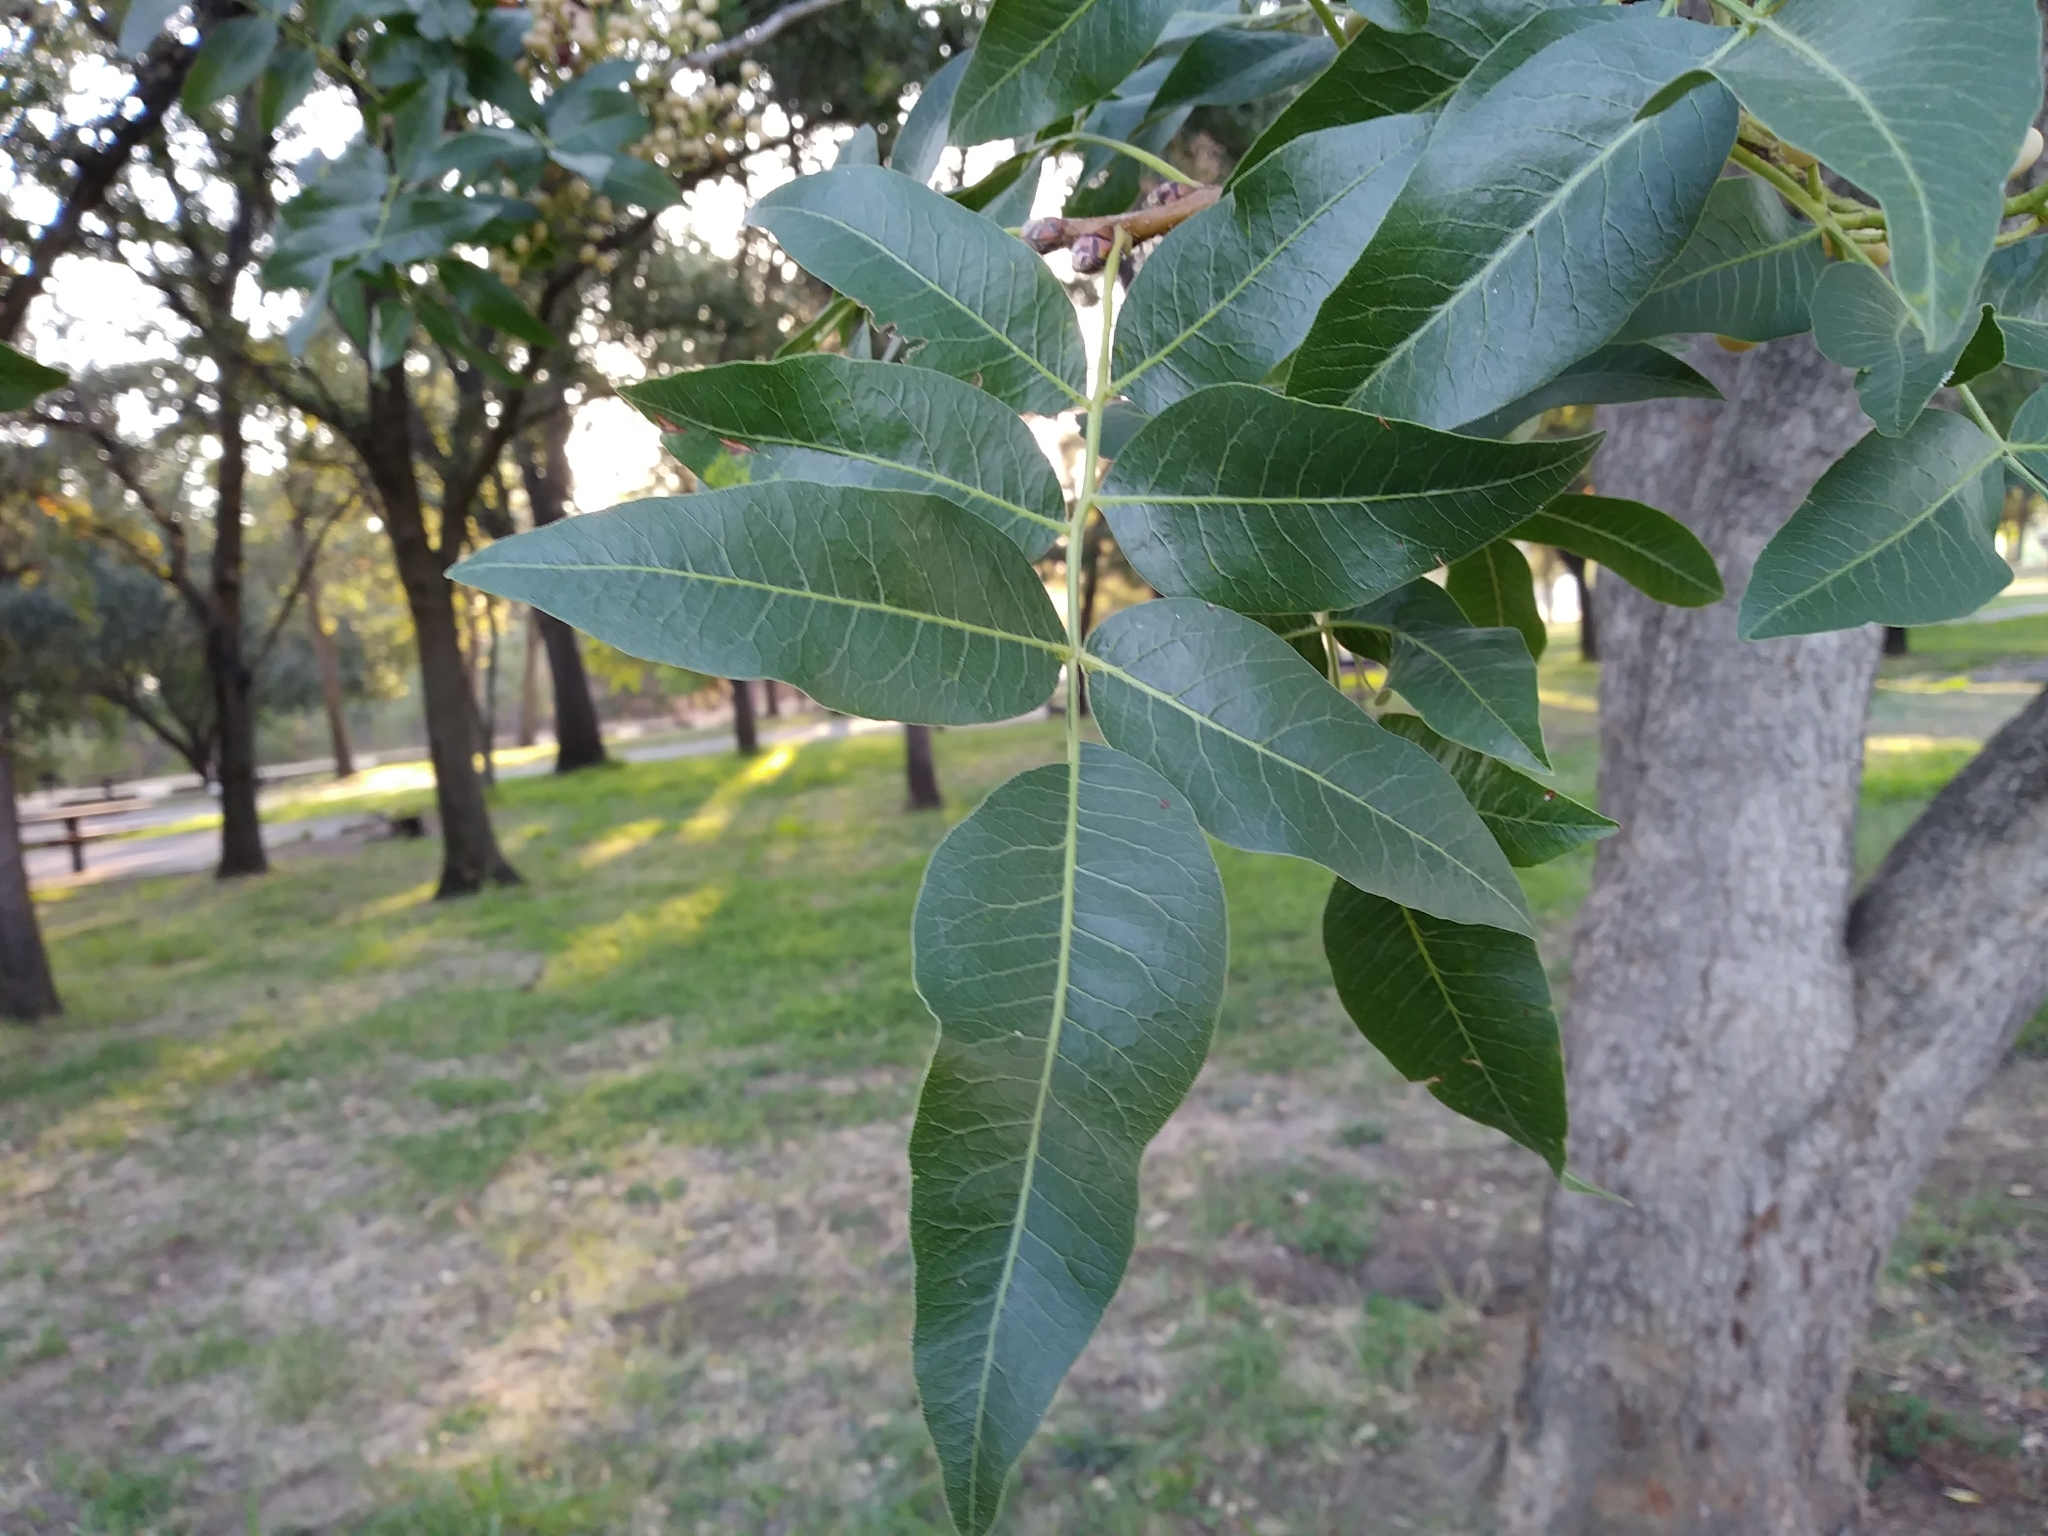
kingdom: Plantae
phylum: Tracheophyta
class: Magnoliopsida
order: Sapindales
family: Anacardiaceae
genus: Pistacia
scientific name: Pistacia atlantica
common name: Mt. atlas mastic tree
